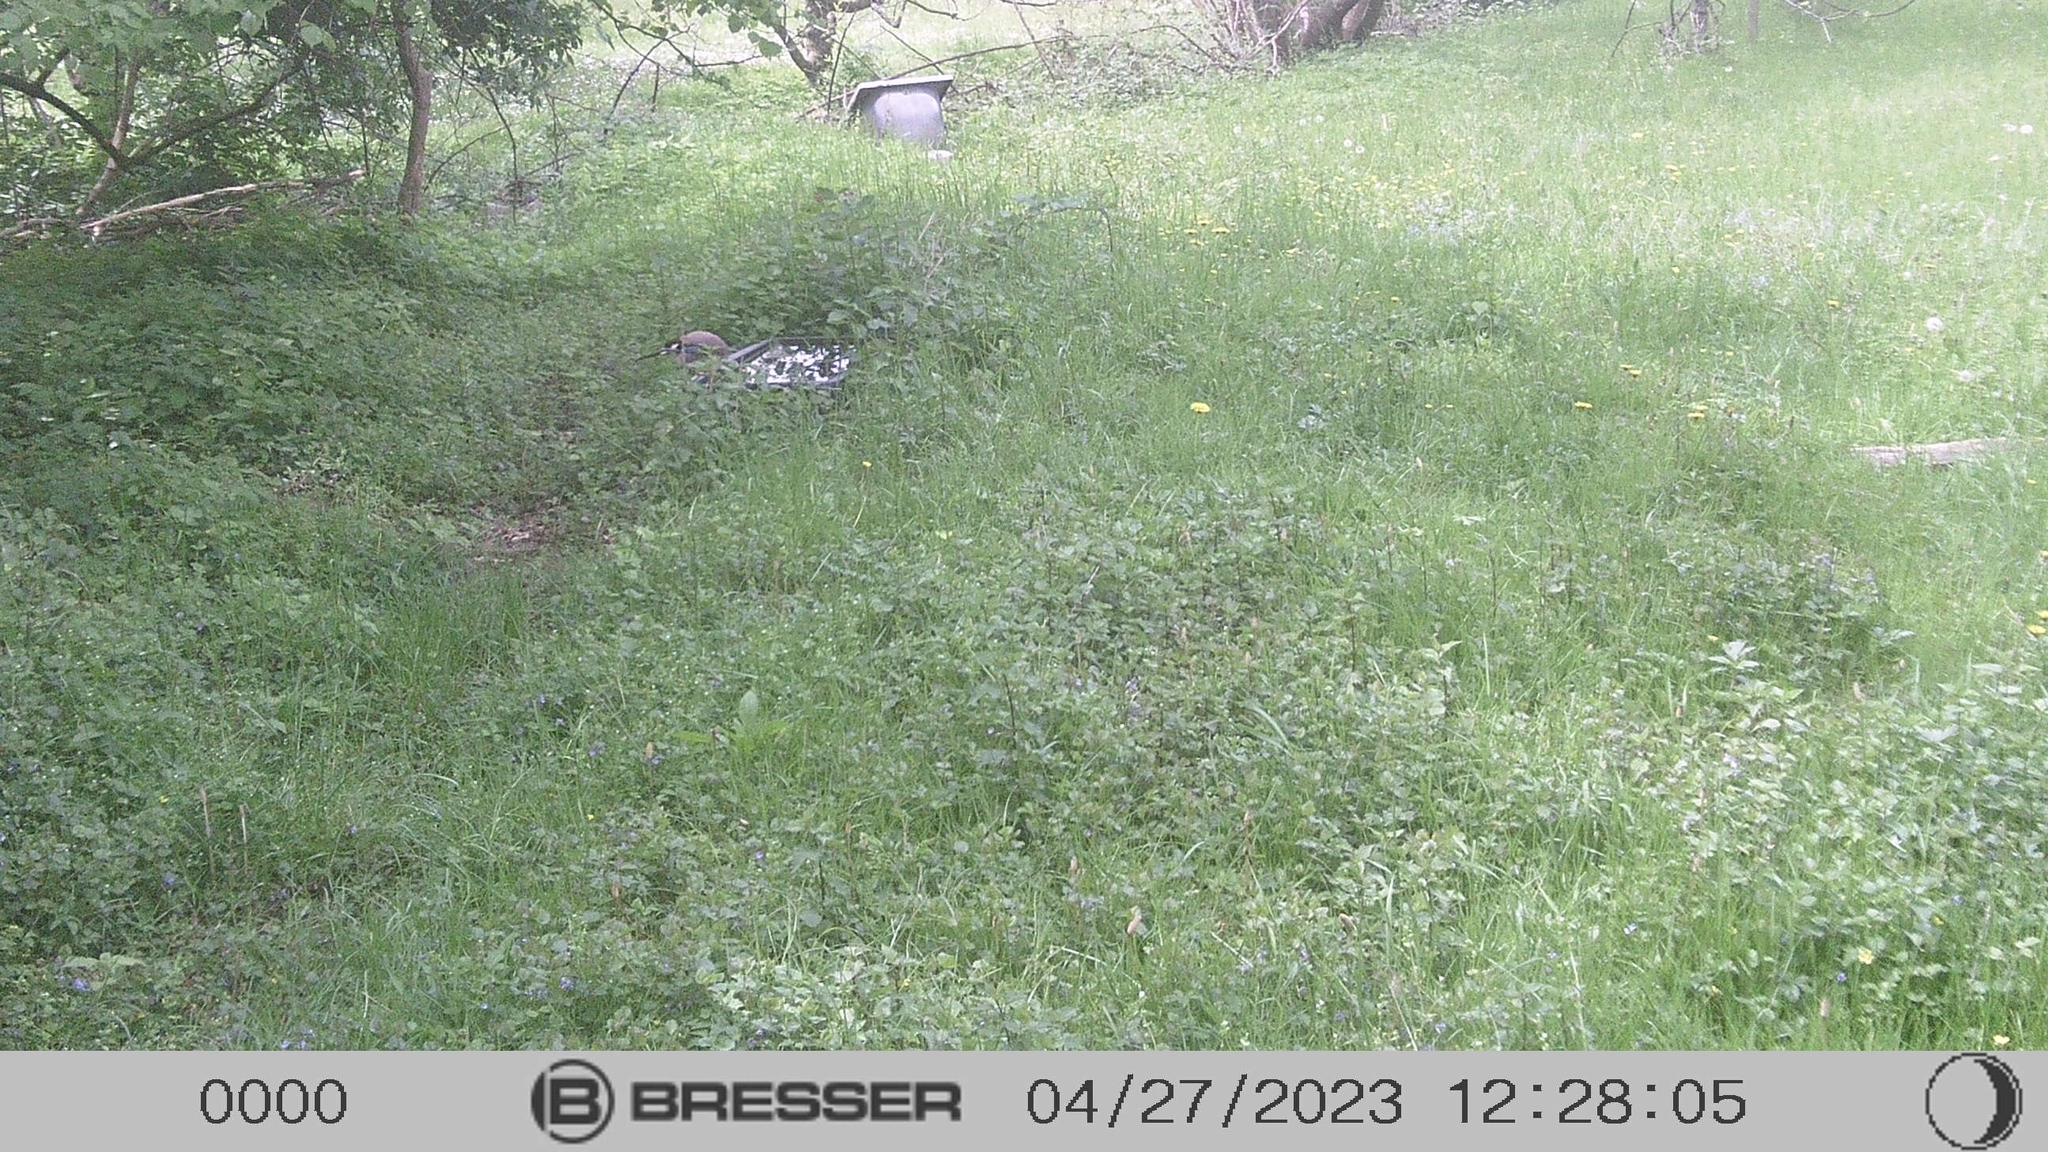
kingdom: Animalia
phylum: Chordata
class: Aves
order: Passeriformes
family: Corvidae
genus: Garrulus
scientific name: Garrulus glandarius
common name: Eurasian jay
